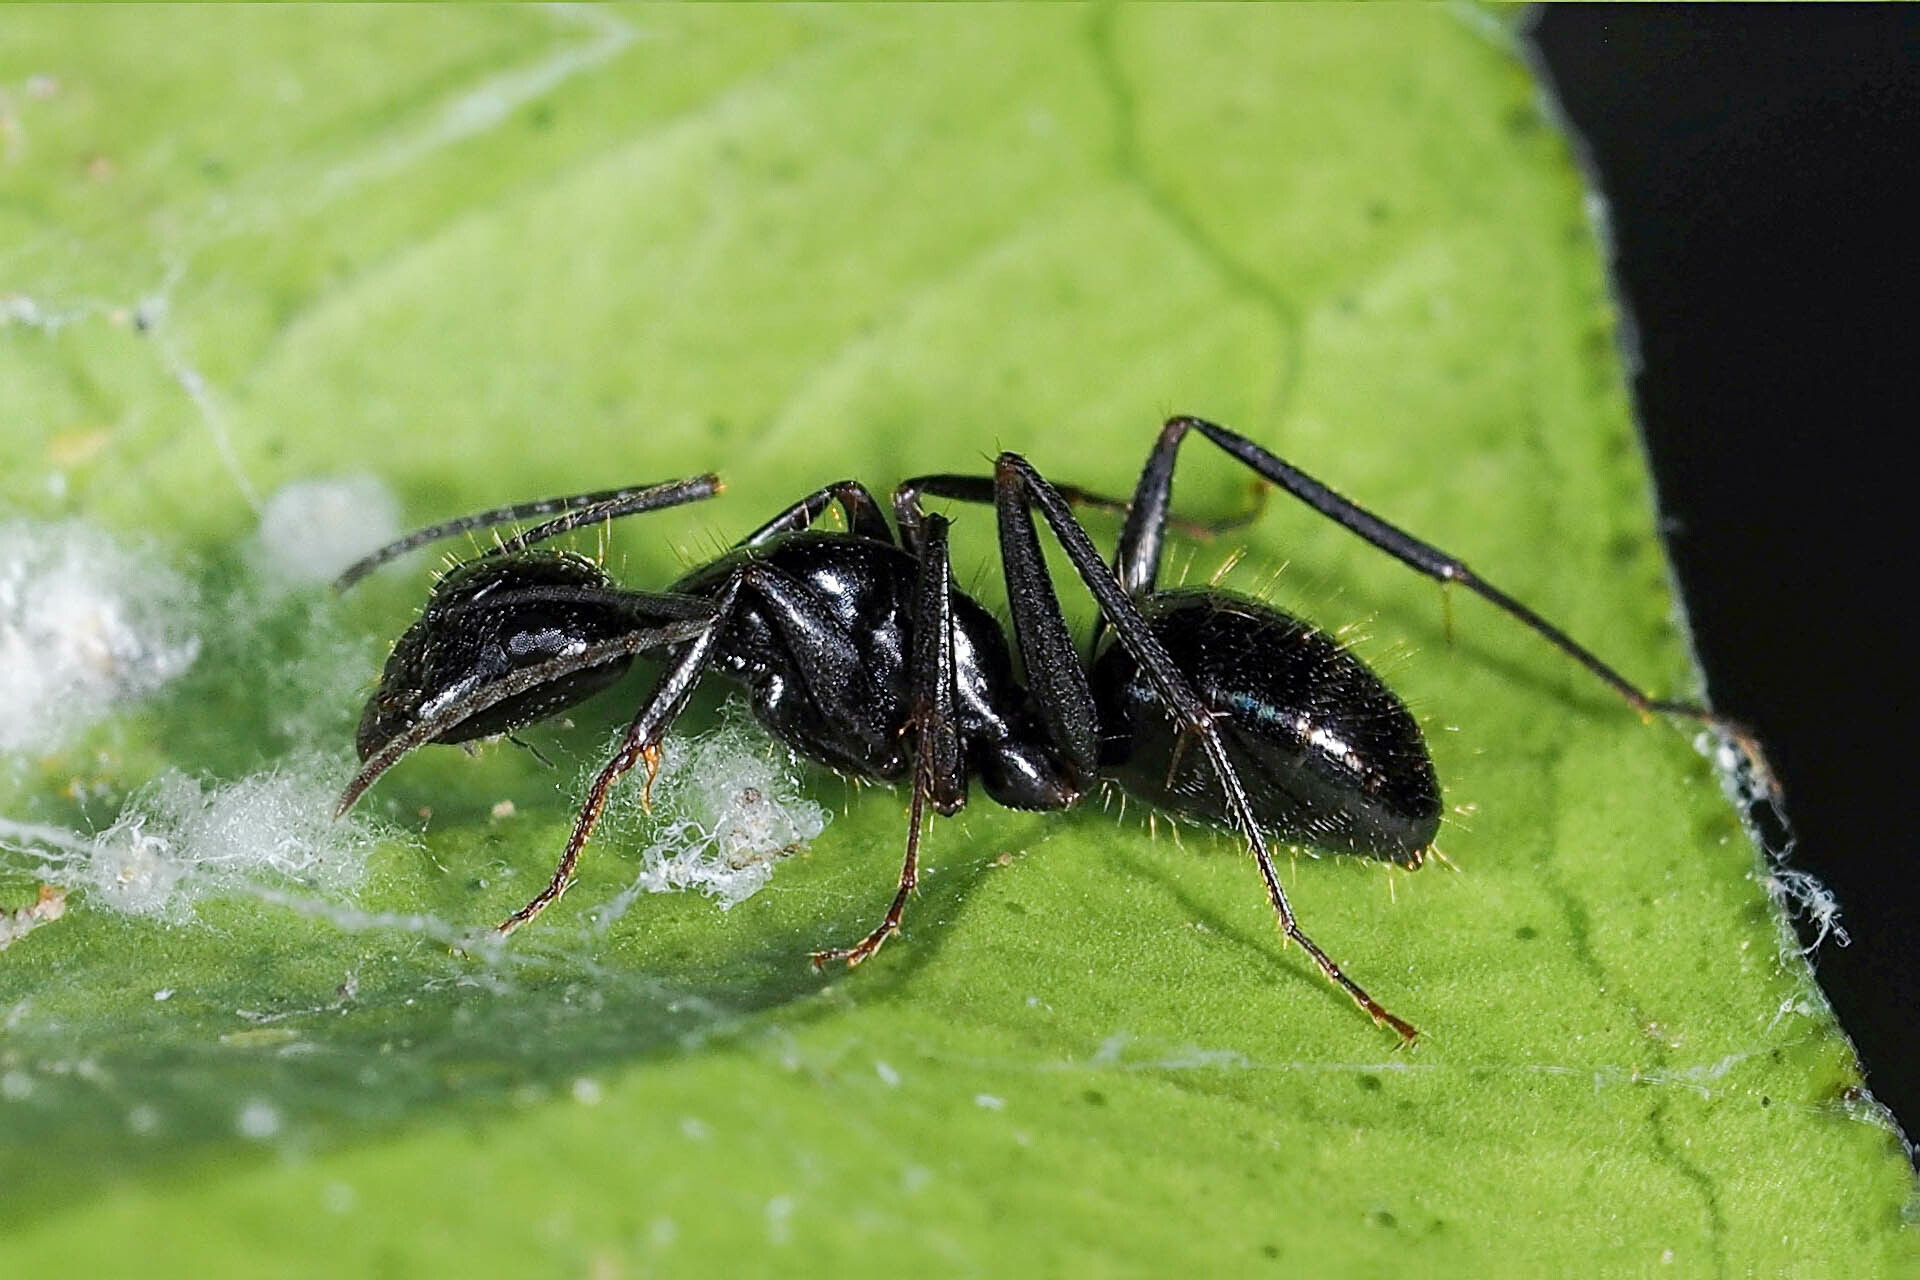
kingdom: Animalia
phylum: Arthropoda
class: Insecta
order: Hymenoptera
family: Formicidae
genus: Camponotus
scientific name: Camponotus aethiops
